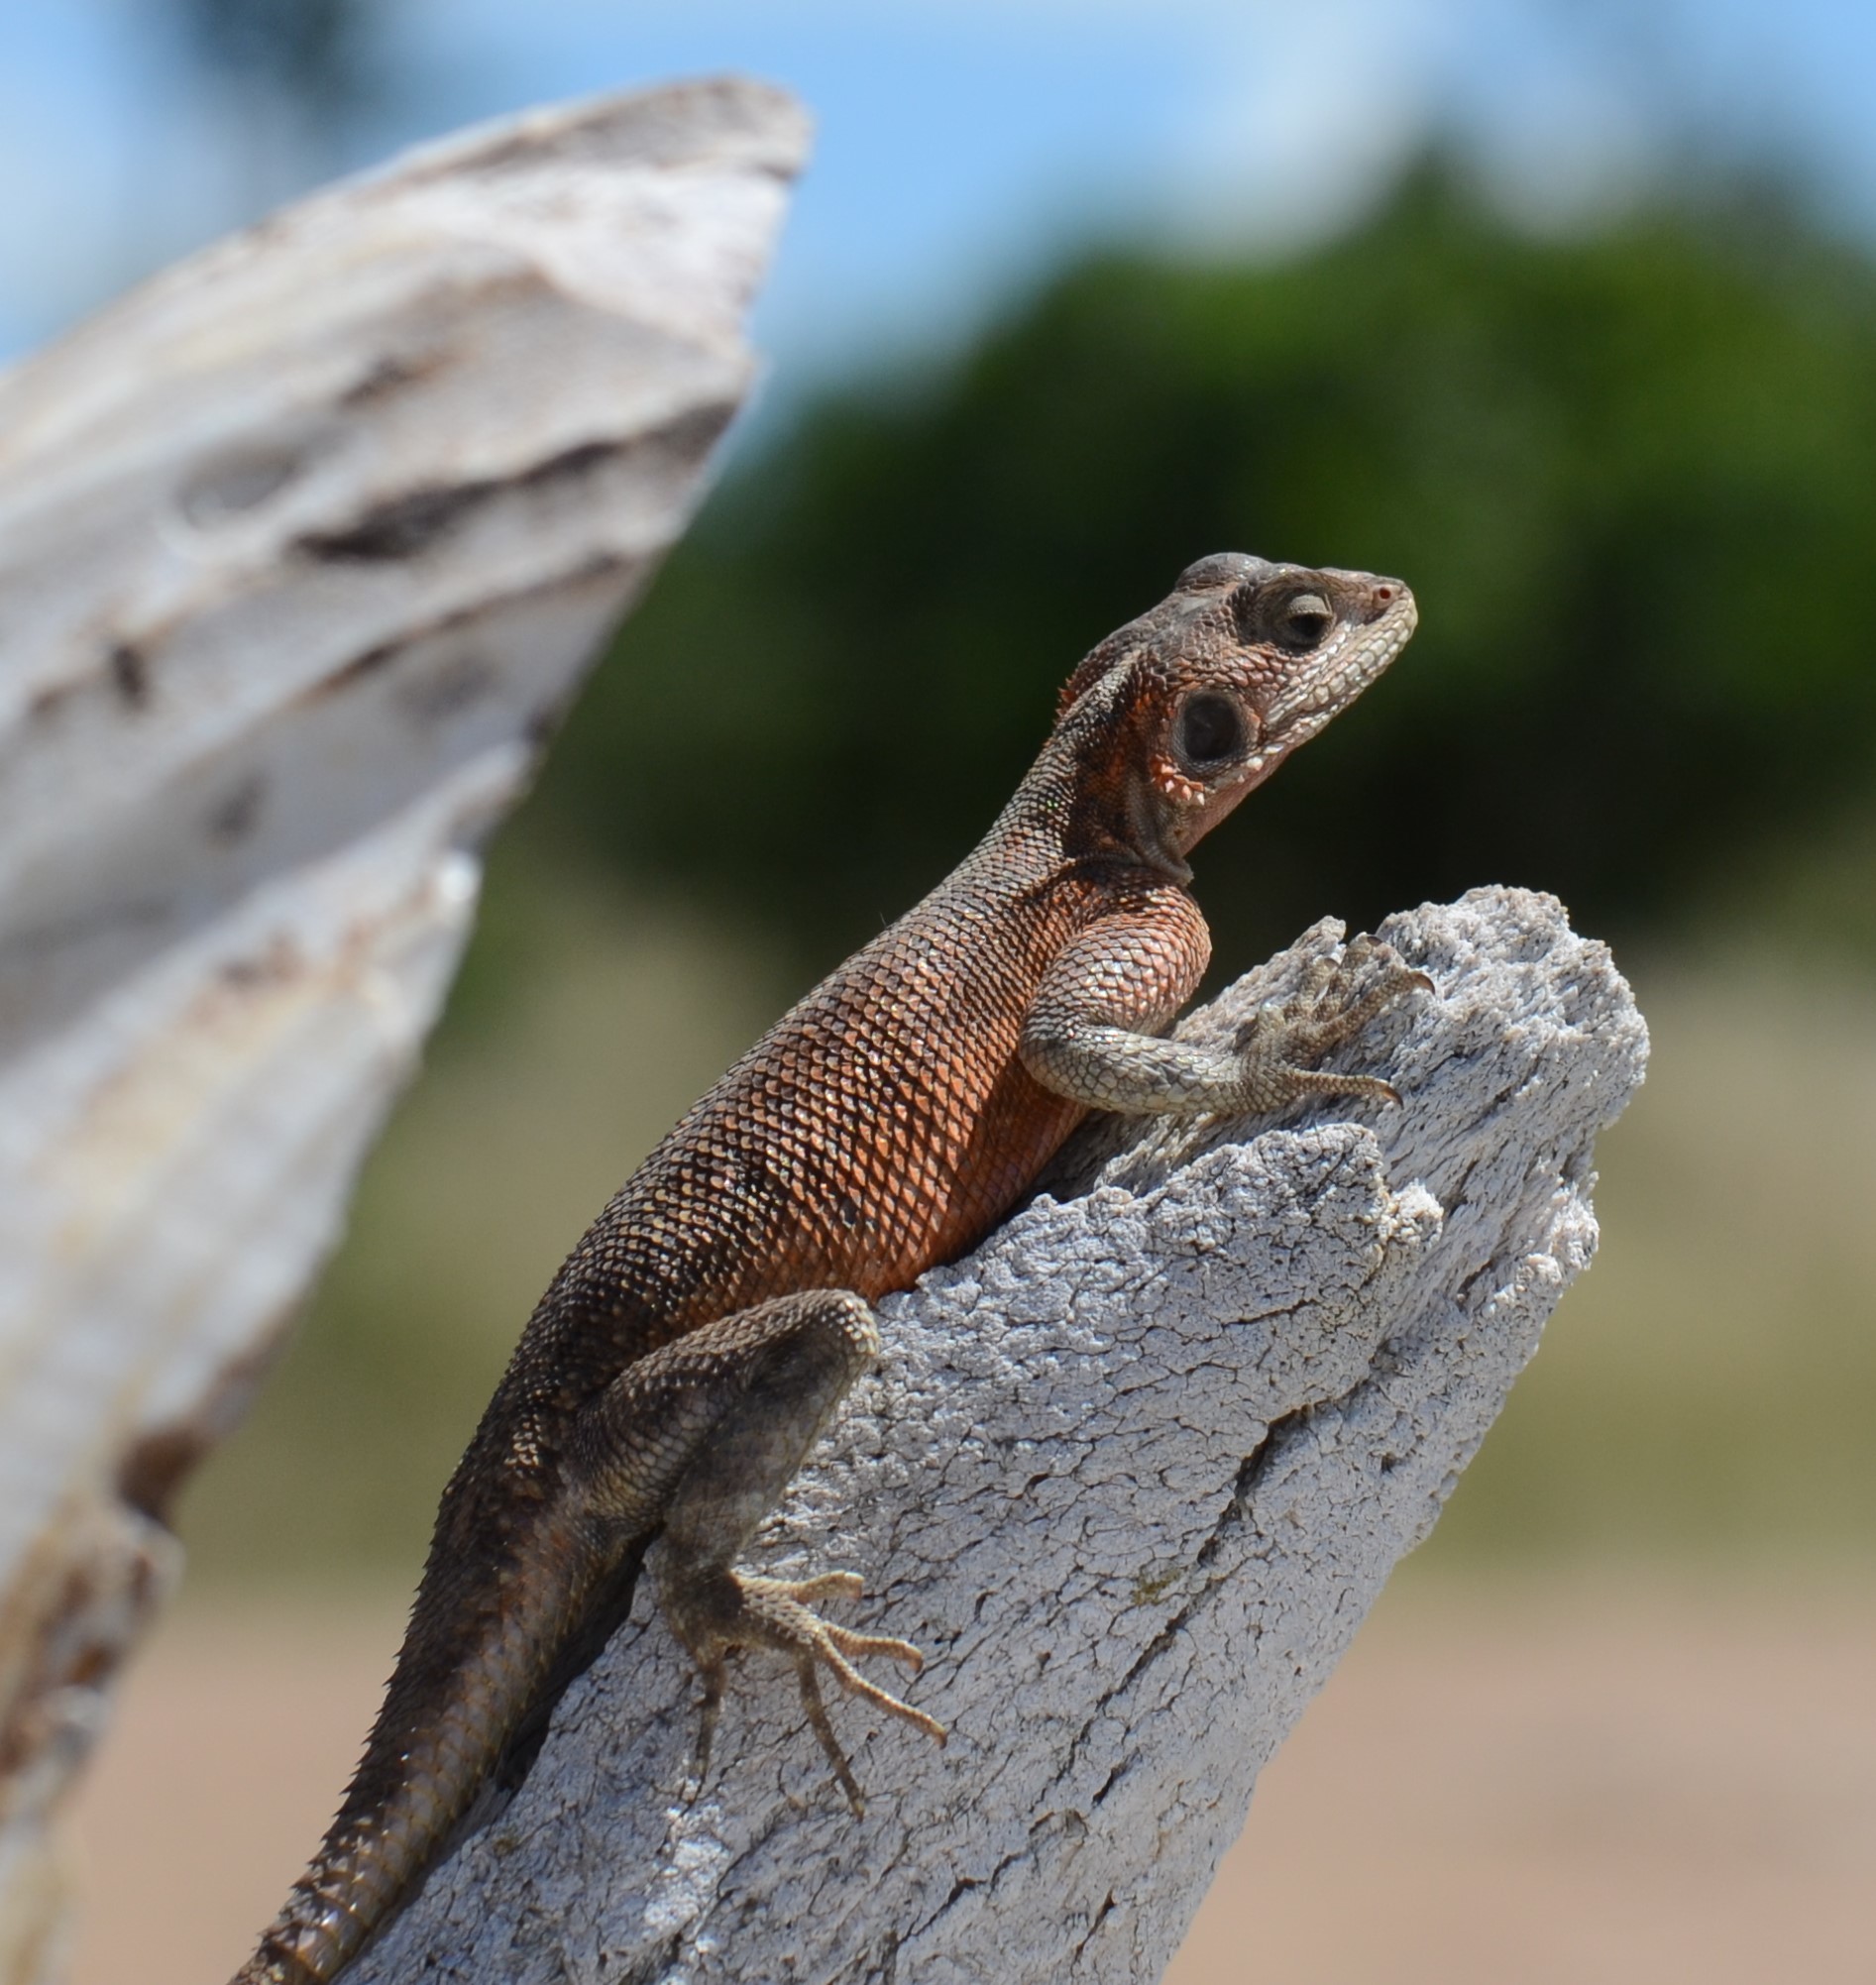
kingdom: Animalia
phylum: Chordata
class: Squamata
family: Agamidae
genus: Agama
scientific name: Agama mwanzae
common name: Mwanza flat-headed agama
